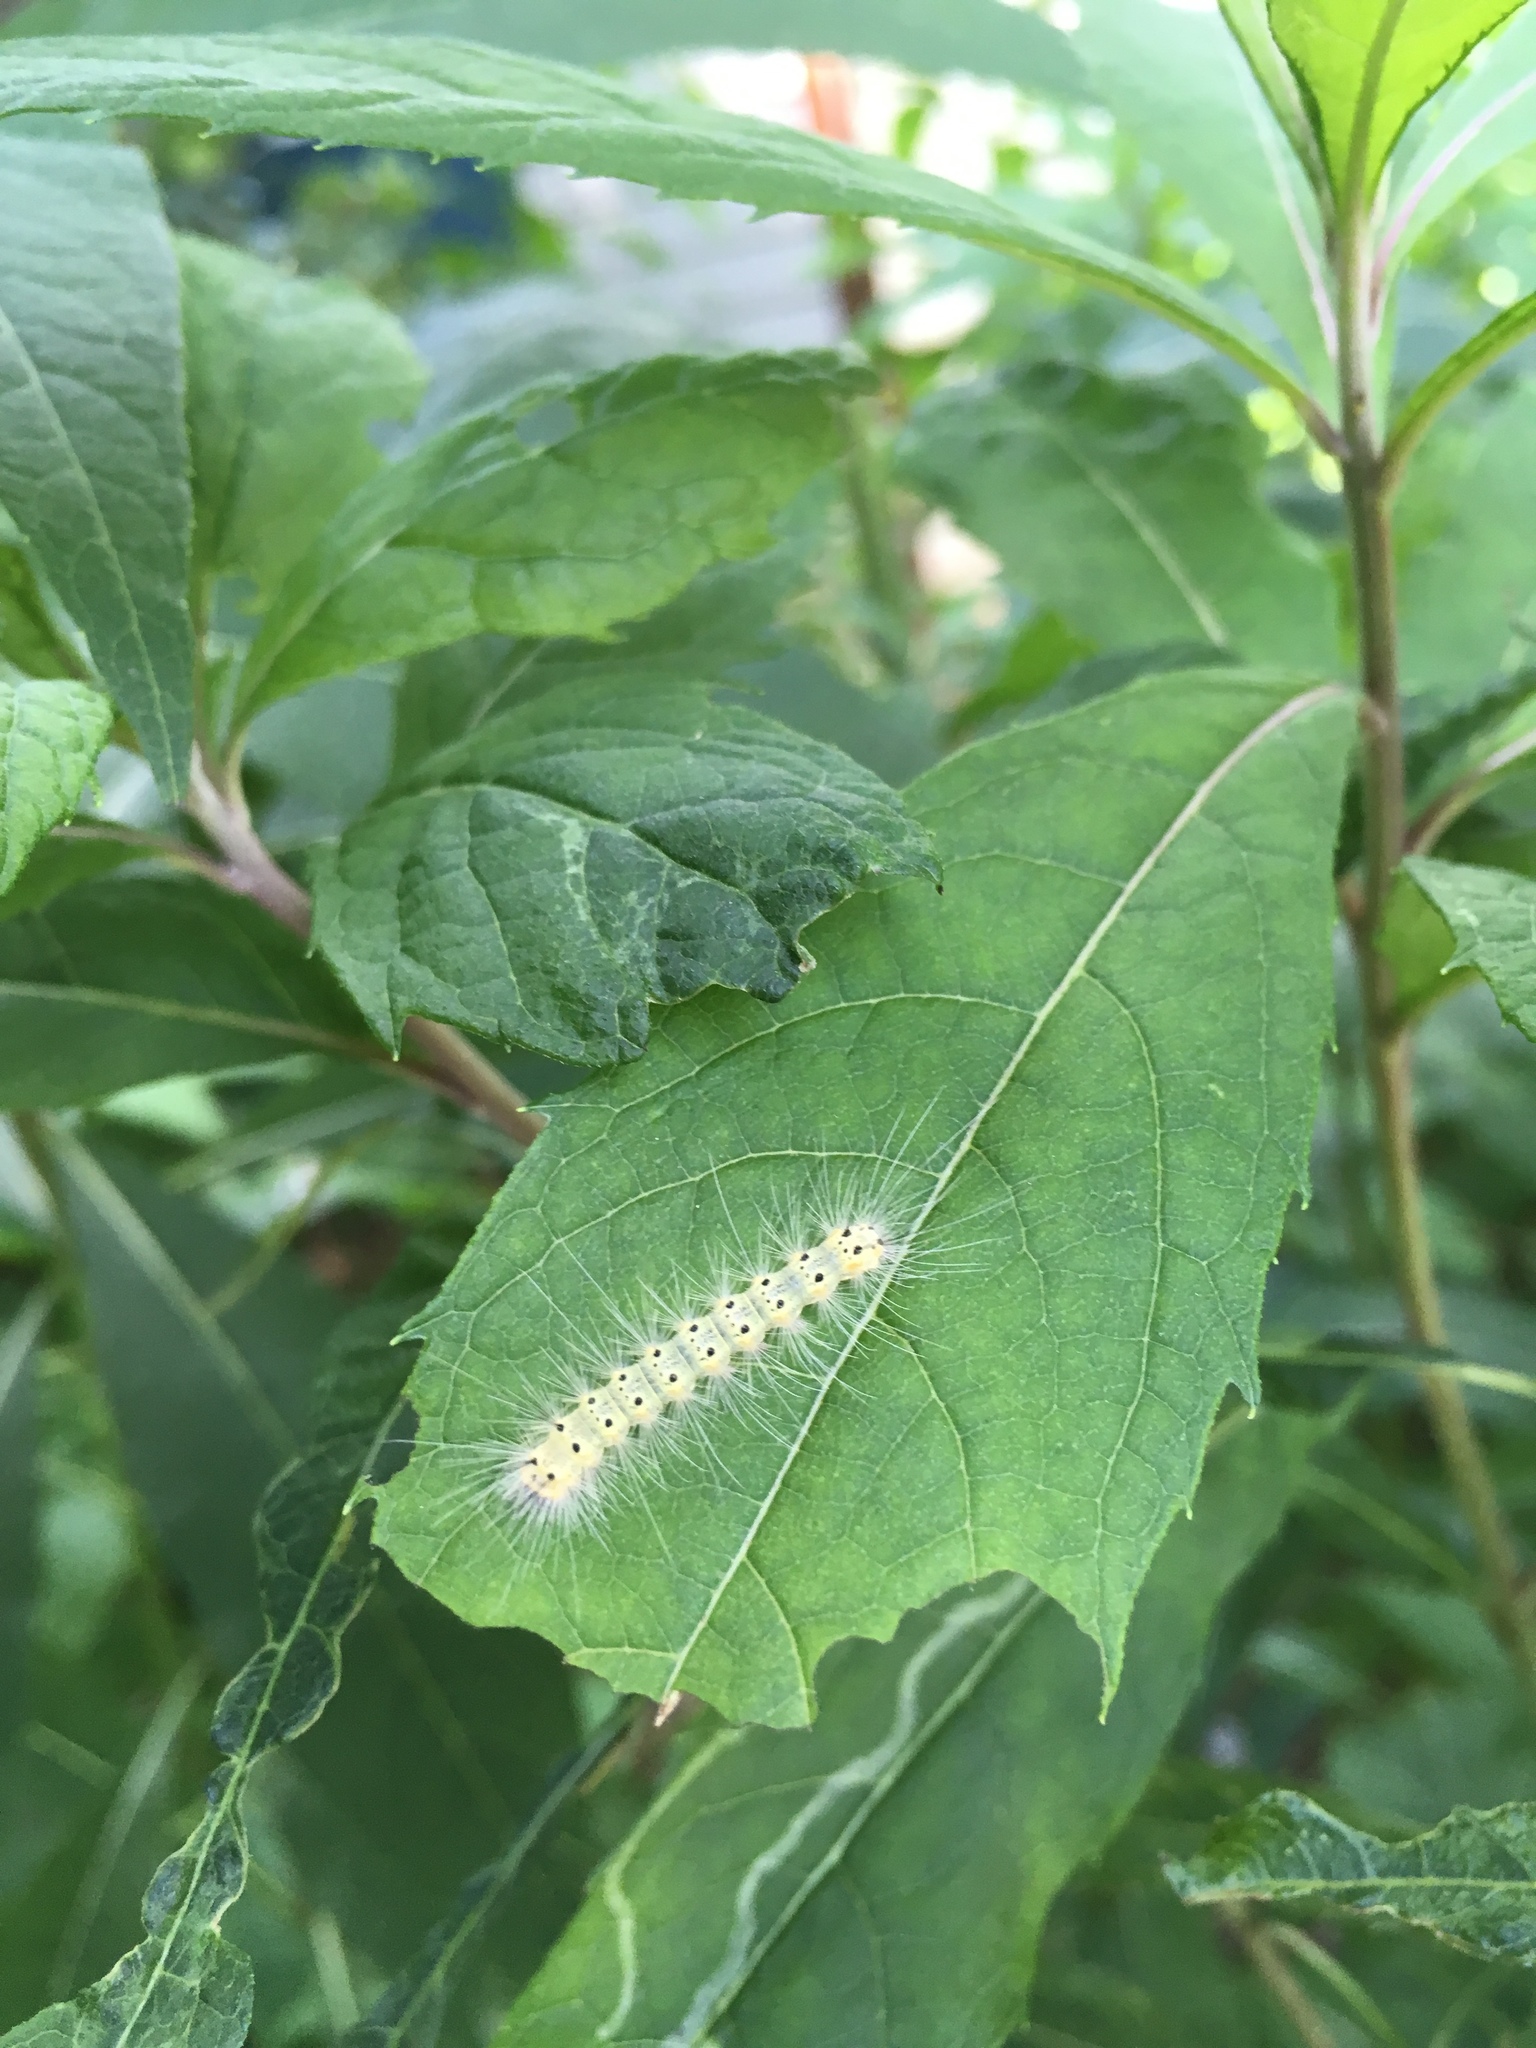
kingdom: Animalia
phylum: Arthropoda
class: Insecta
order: Lepidoptera
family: Erebidae
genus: Hyphantria
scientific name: Hyphantria cunea
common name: American white moth
